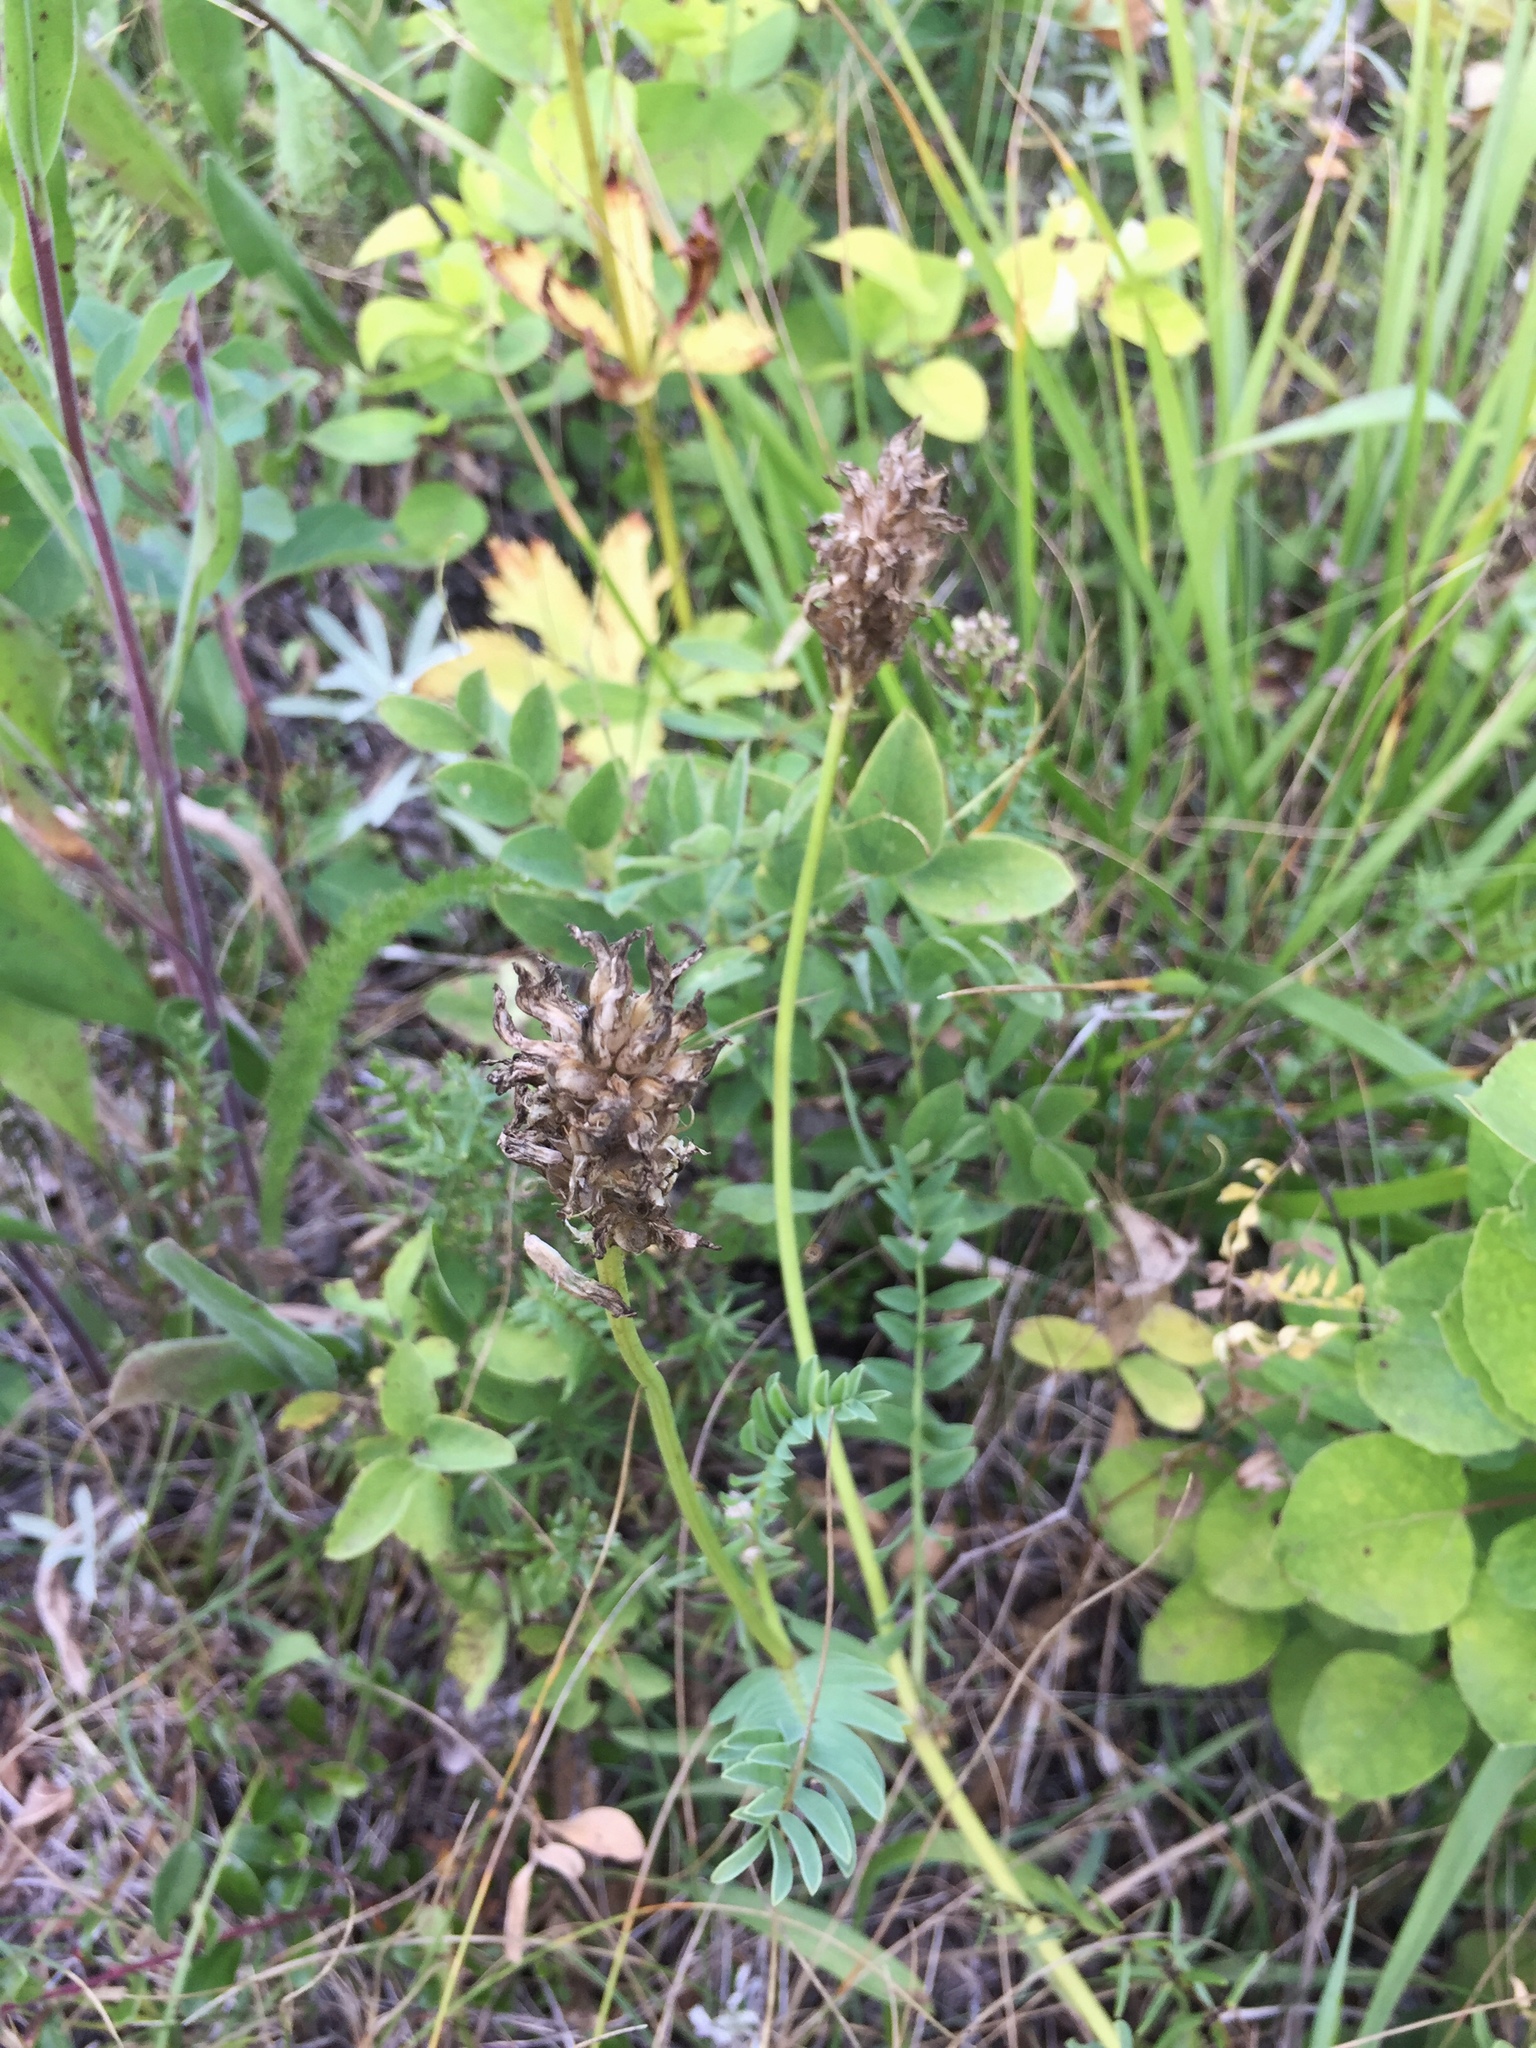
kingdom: Plantae
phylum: Tracheophyta
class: Magnoliopsida
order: Fabales
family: Fabaceae
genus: Astragalus
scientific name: Astragalus laxmannii
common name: Laxmann's milk-vetch
